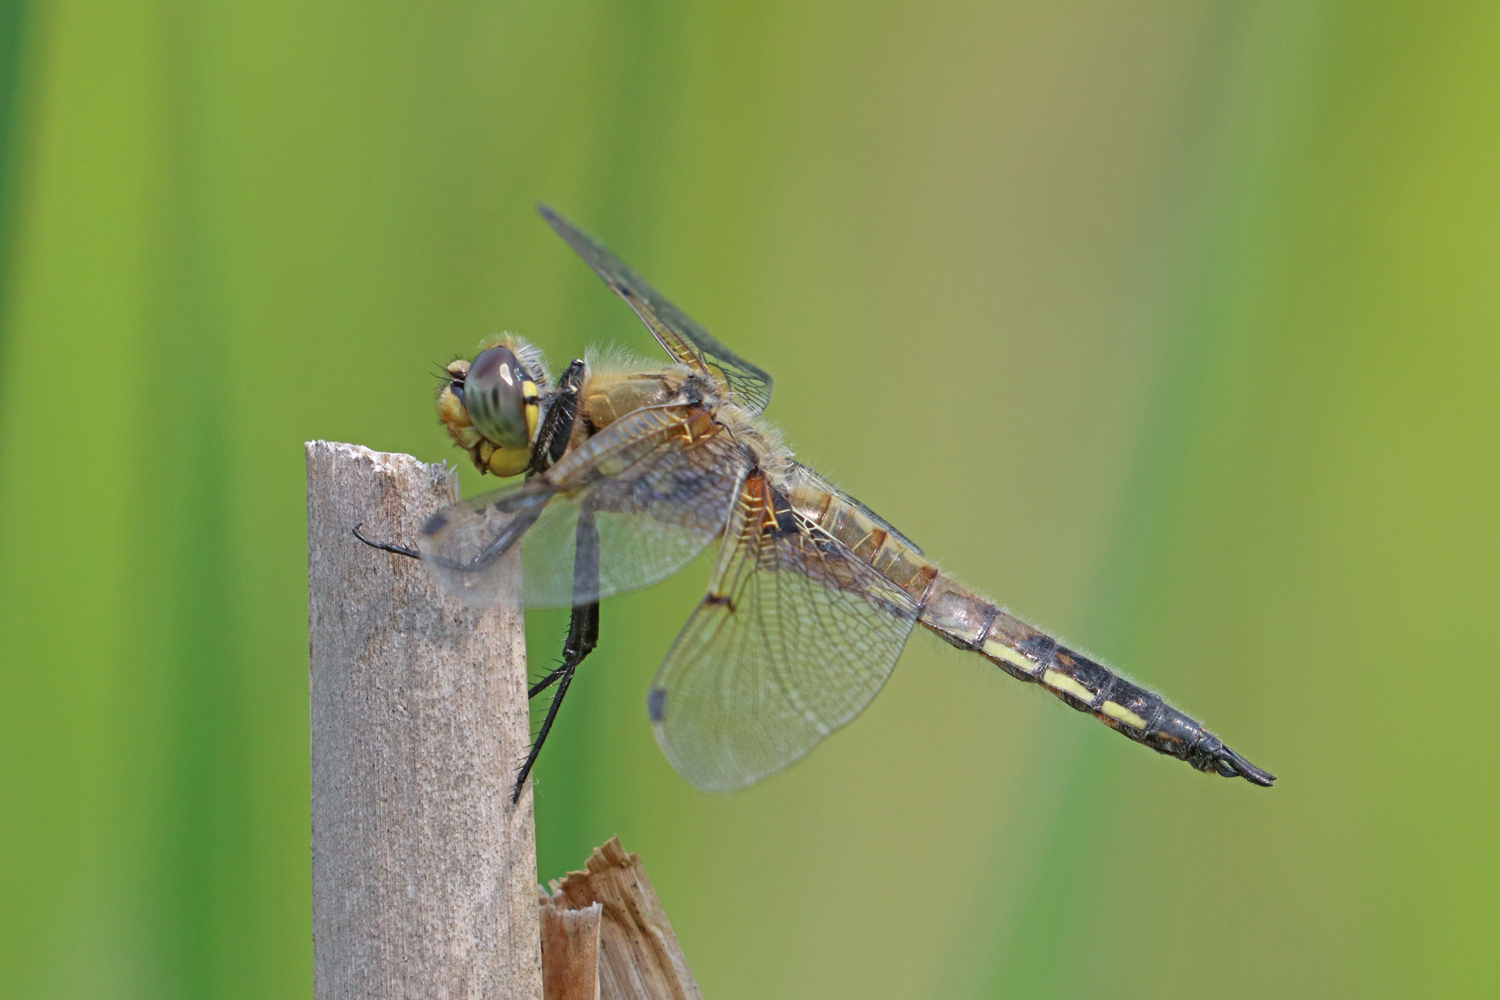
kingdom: Animalia
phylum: Arthropoda
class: Insecta
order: Odonata
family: Libellulidae
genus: Libellula
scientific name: Libellula quadrimaculata
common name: Four-spotted chaser
